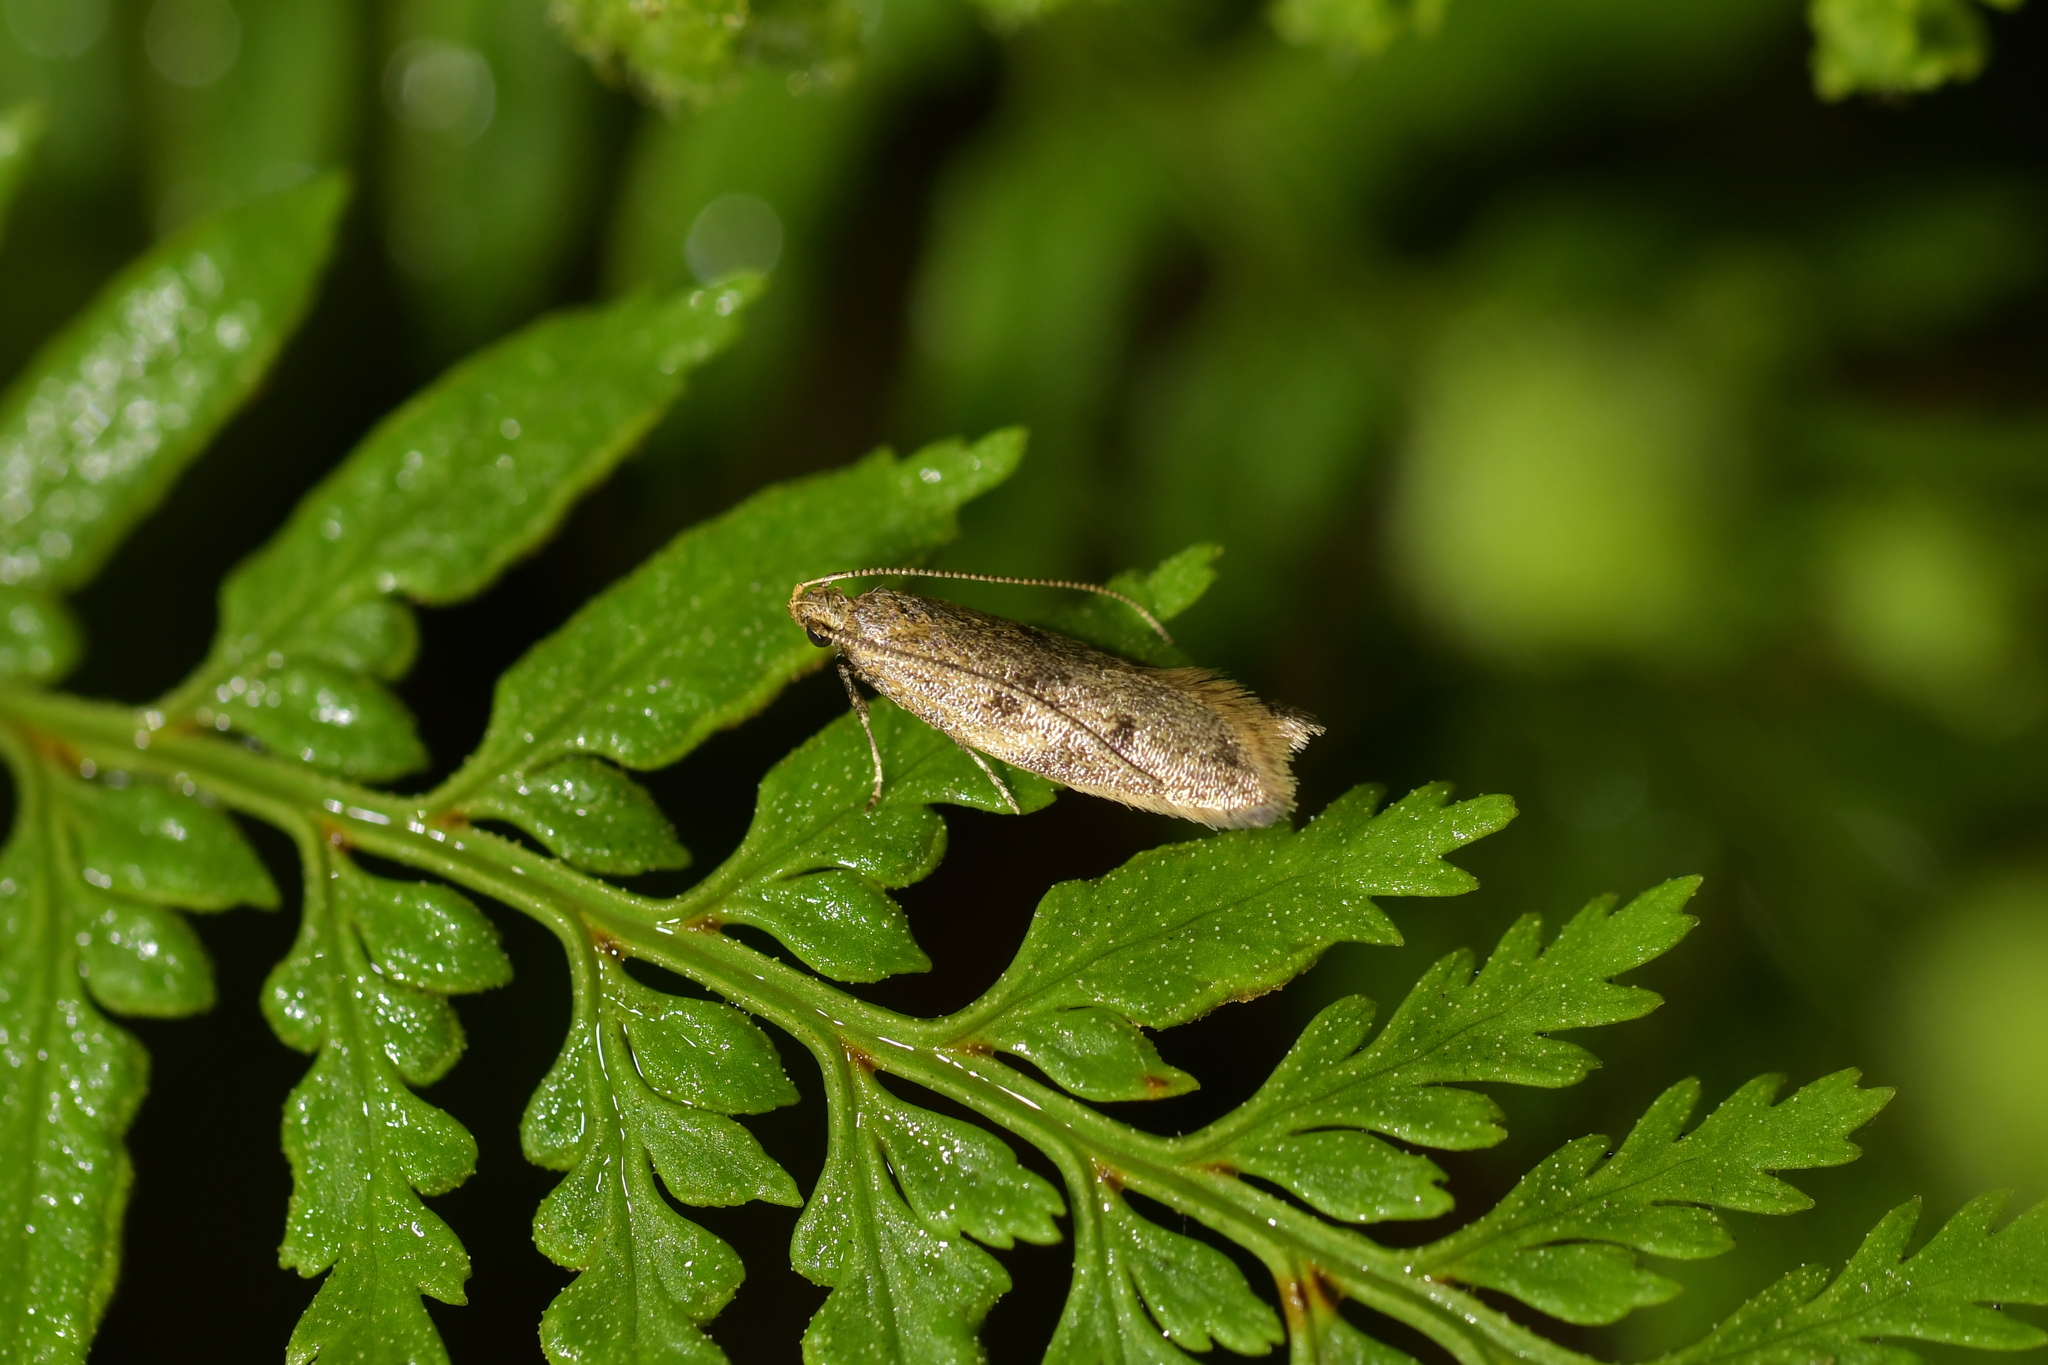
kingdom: Animalia
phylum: Arthropoda
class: Insecta
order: Lepidoptera
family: Oecophoridae
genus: Gymnobathra
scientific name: Gymnobathra tholodella
